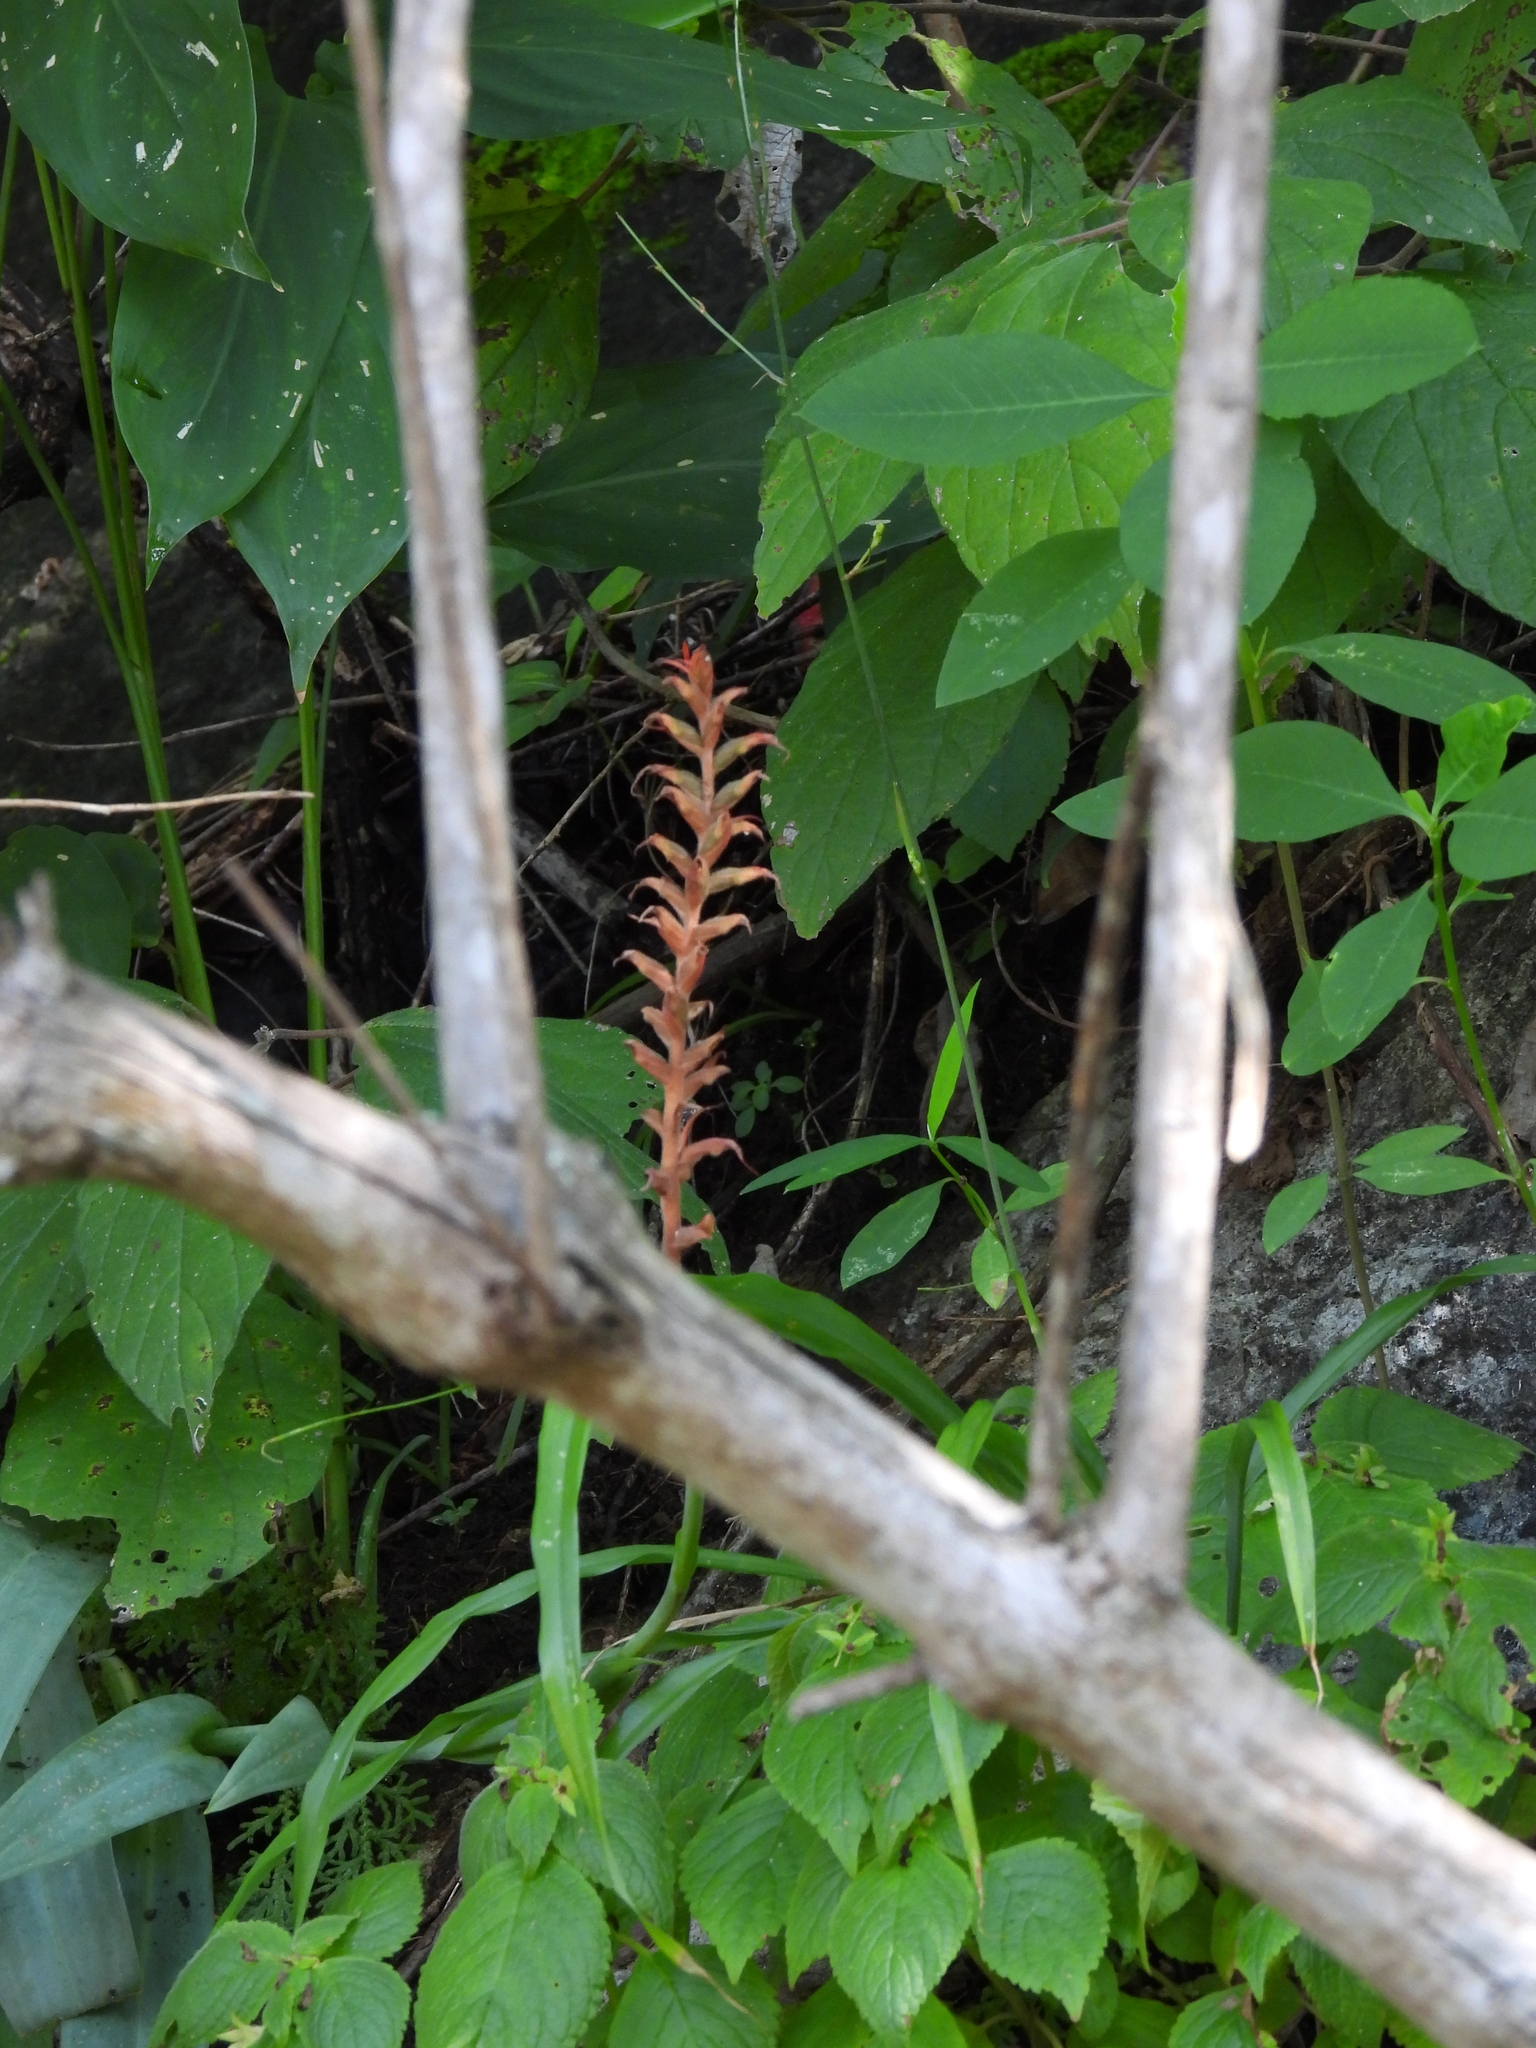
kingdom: Plantae
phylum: Tracheophyta
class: Liliopsida
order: Asparagales
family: Orchidaceae
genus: Sacoila
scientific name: Sacoila lanceolata
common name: Leafless beaked ladiestresses
